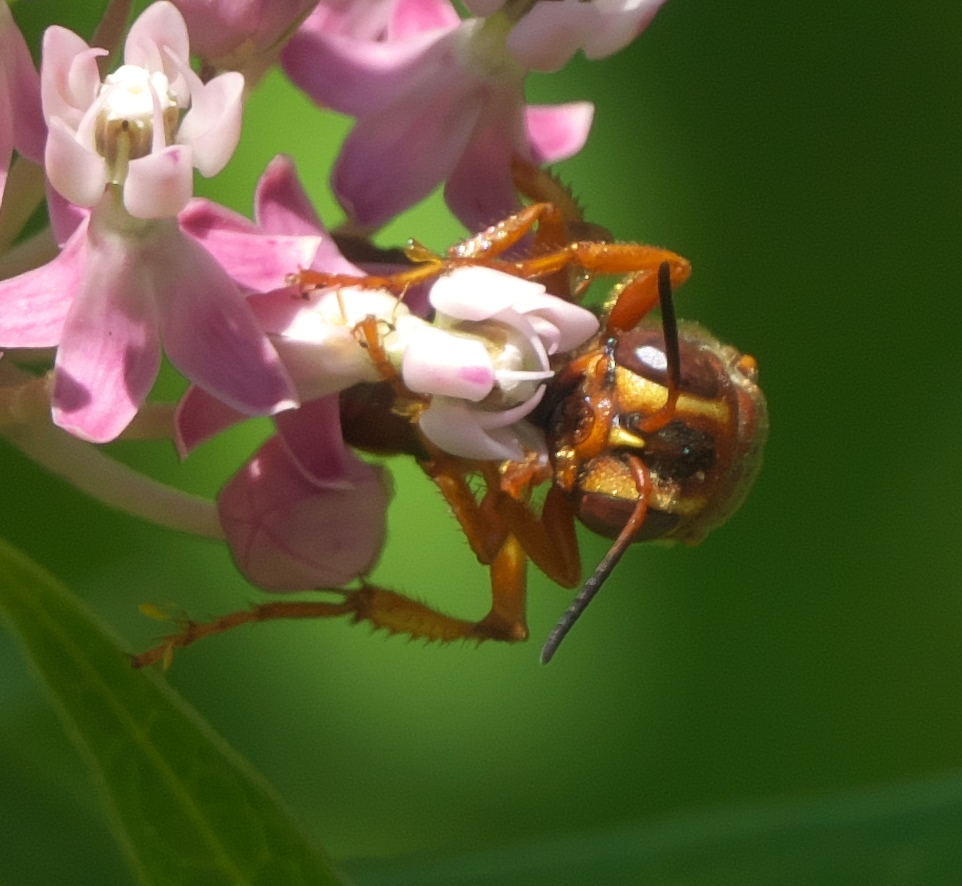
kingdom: Animalia
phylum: Arthropoda
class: Insecta
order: Hymenoptera
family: Crabronidae
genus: Cerceris
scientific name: Cerceris bicornuta
